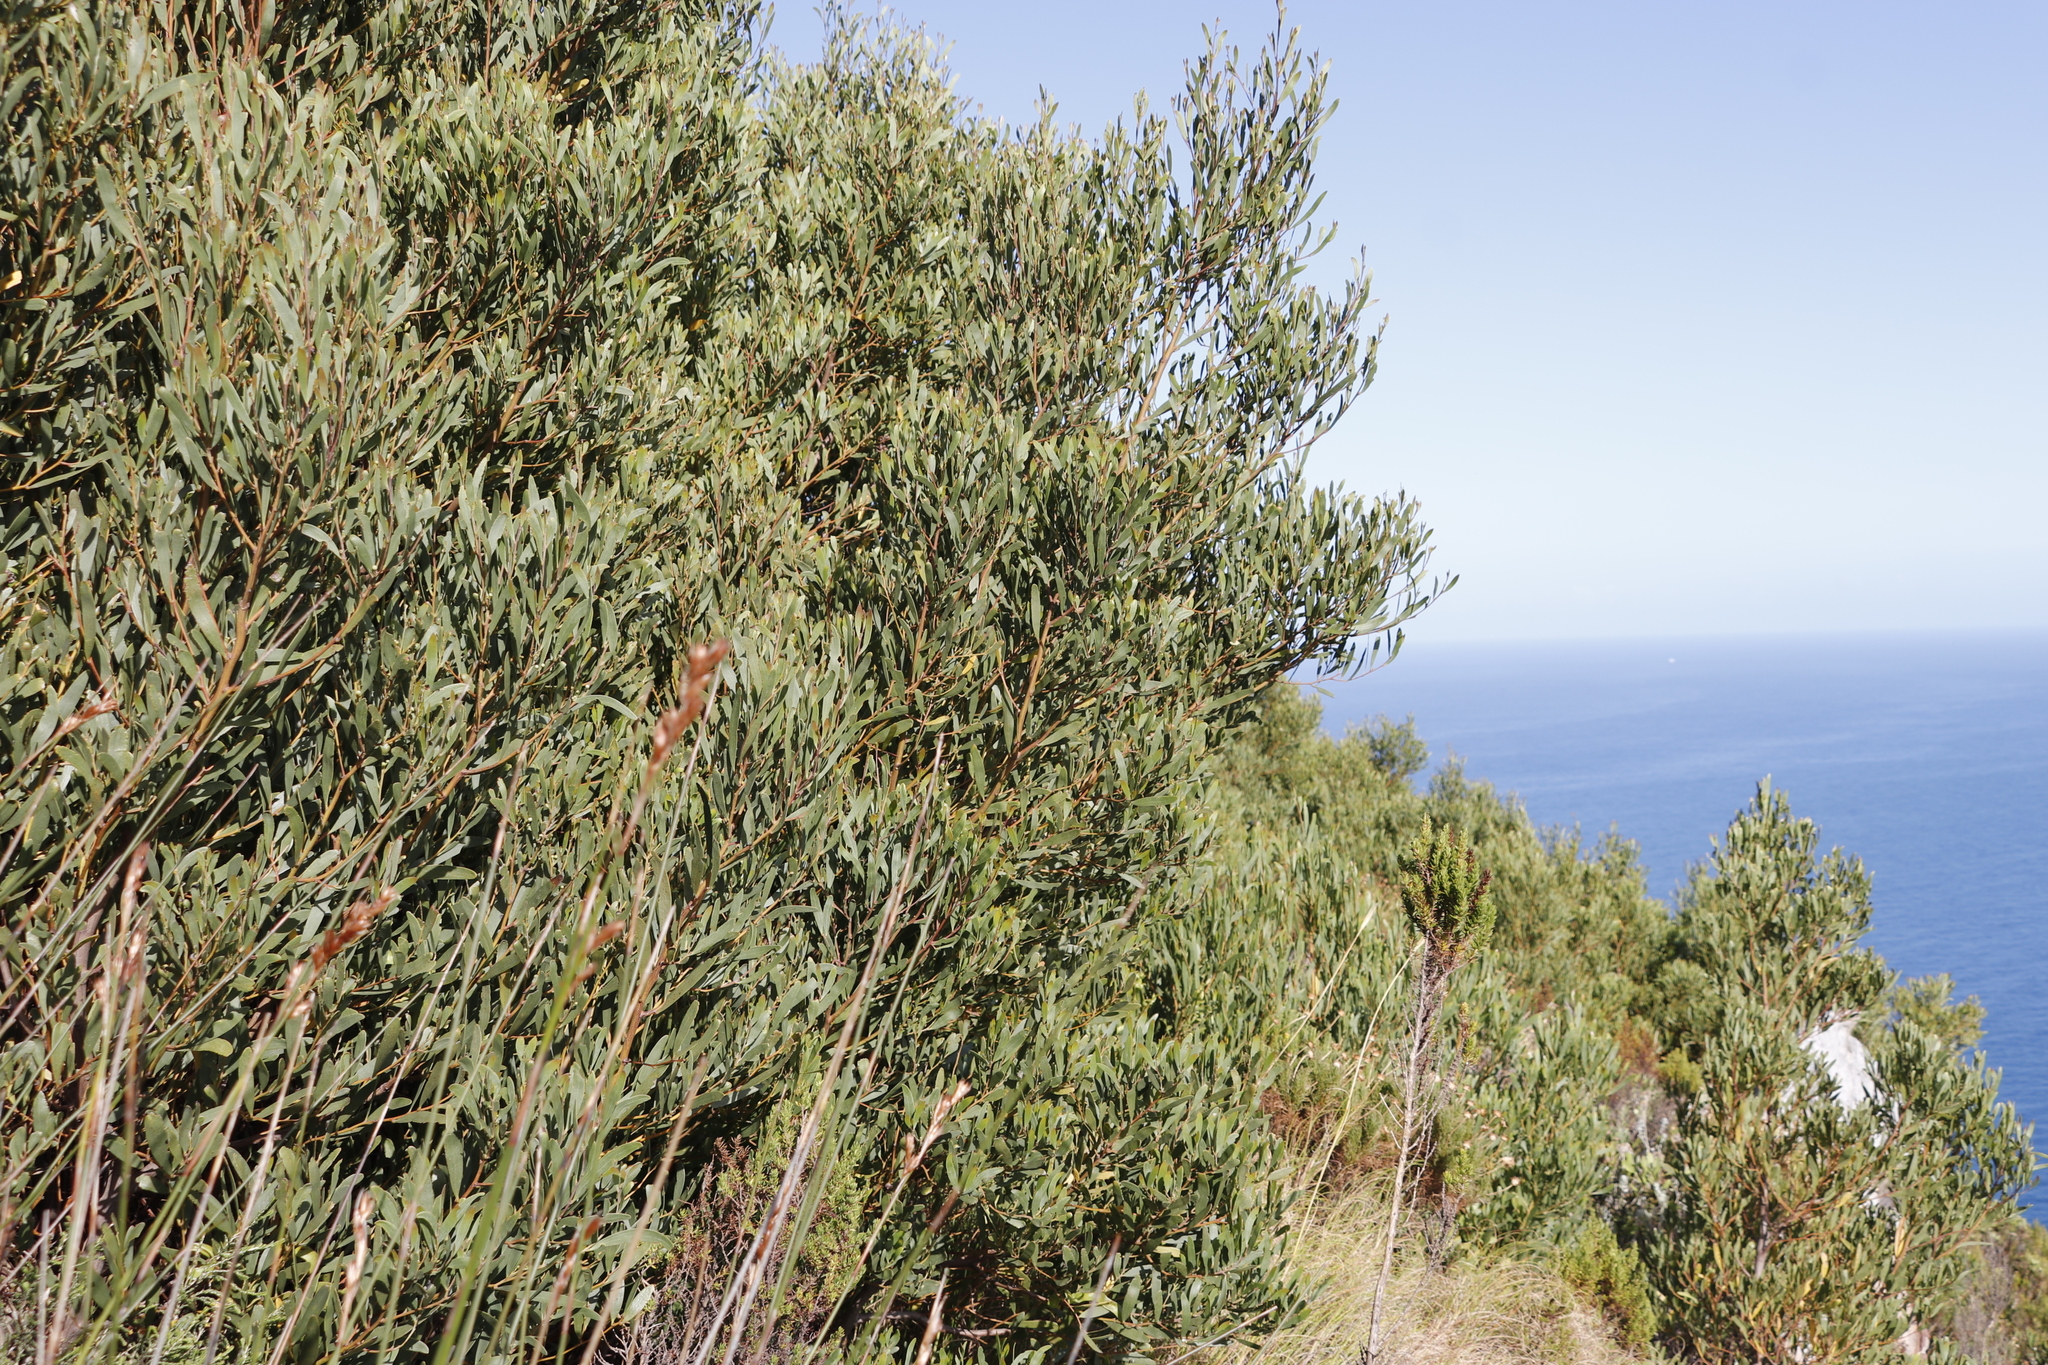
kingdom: Plantae
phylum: Tracheophyta
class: Magnoliopsida
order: Fabales
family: Fabaceae
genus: Acacia
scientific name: Acacia cyclops
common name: Coastal wattle
